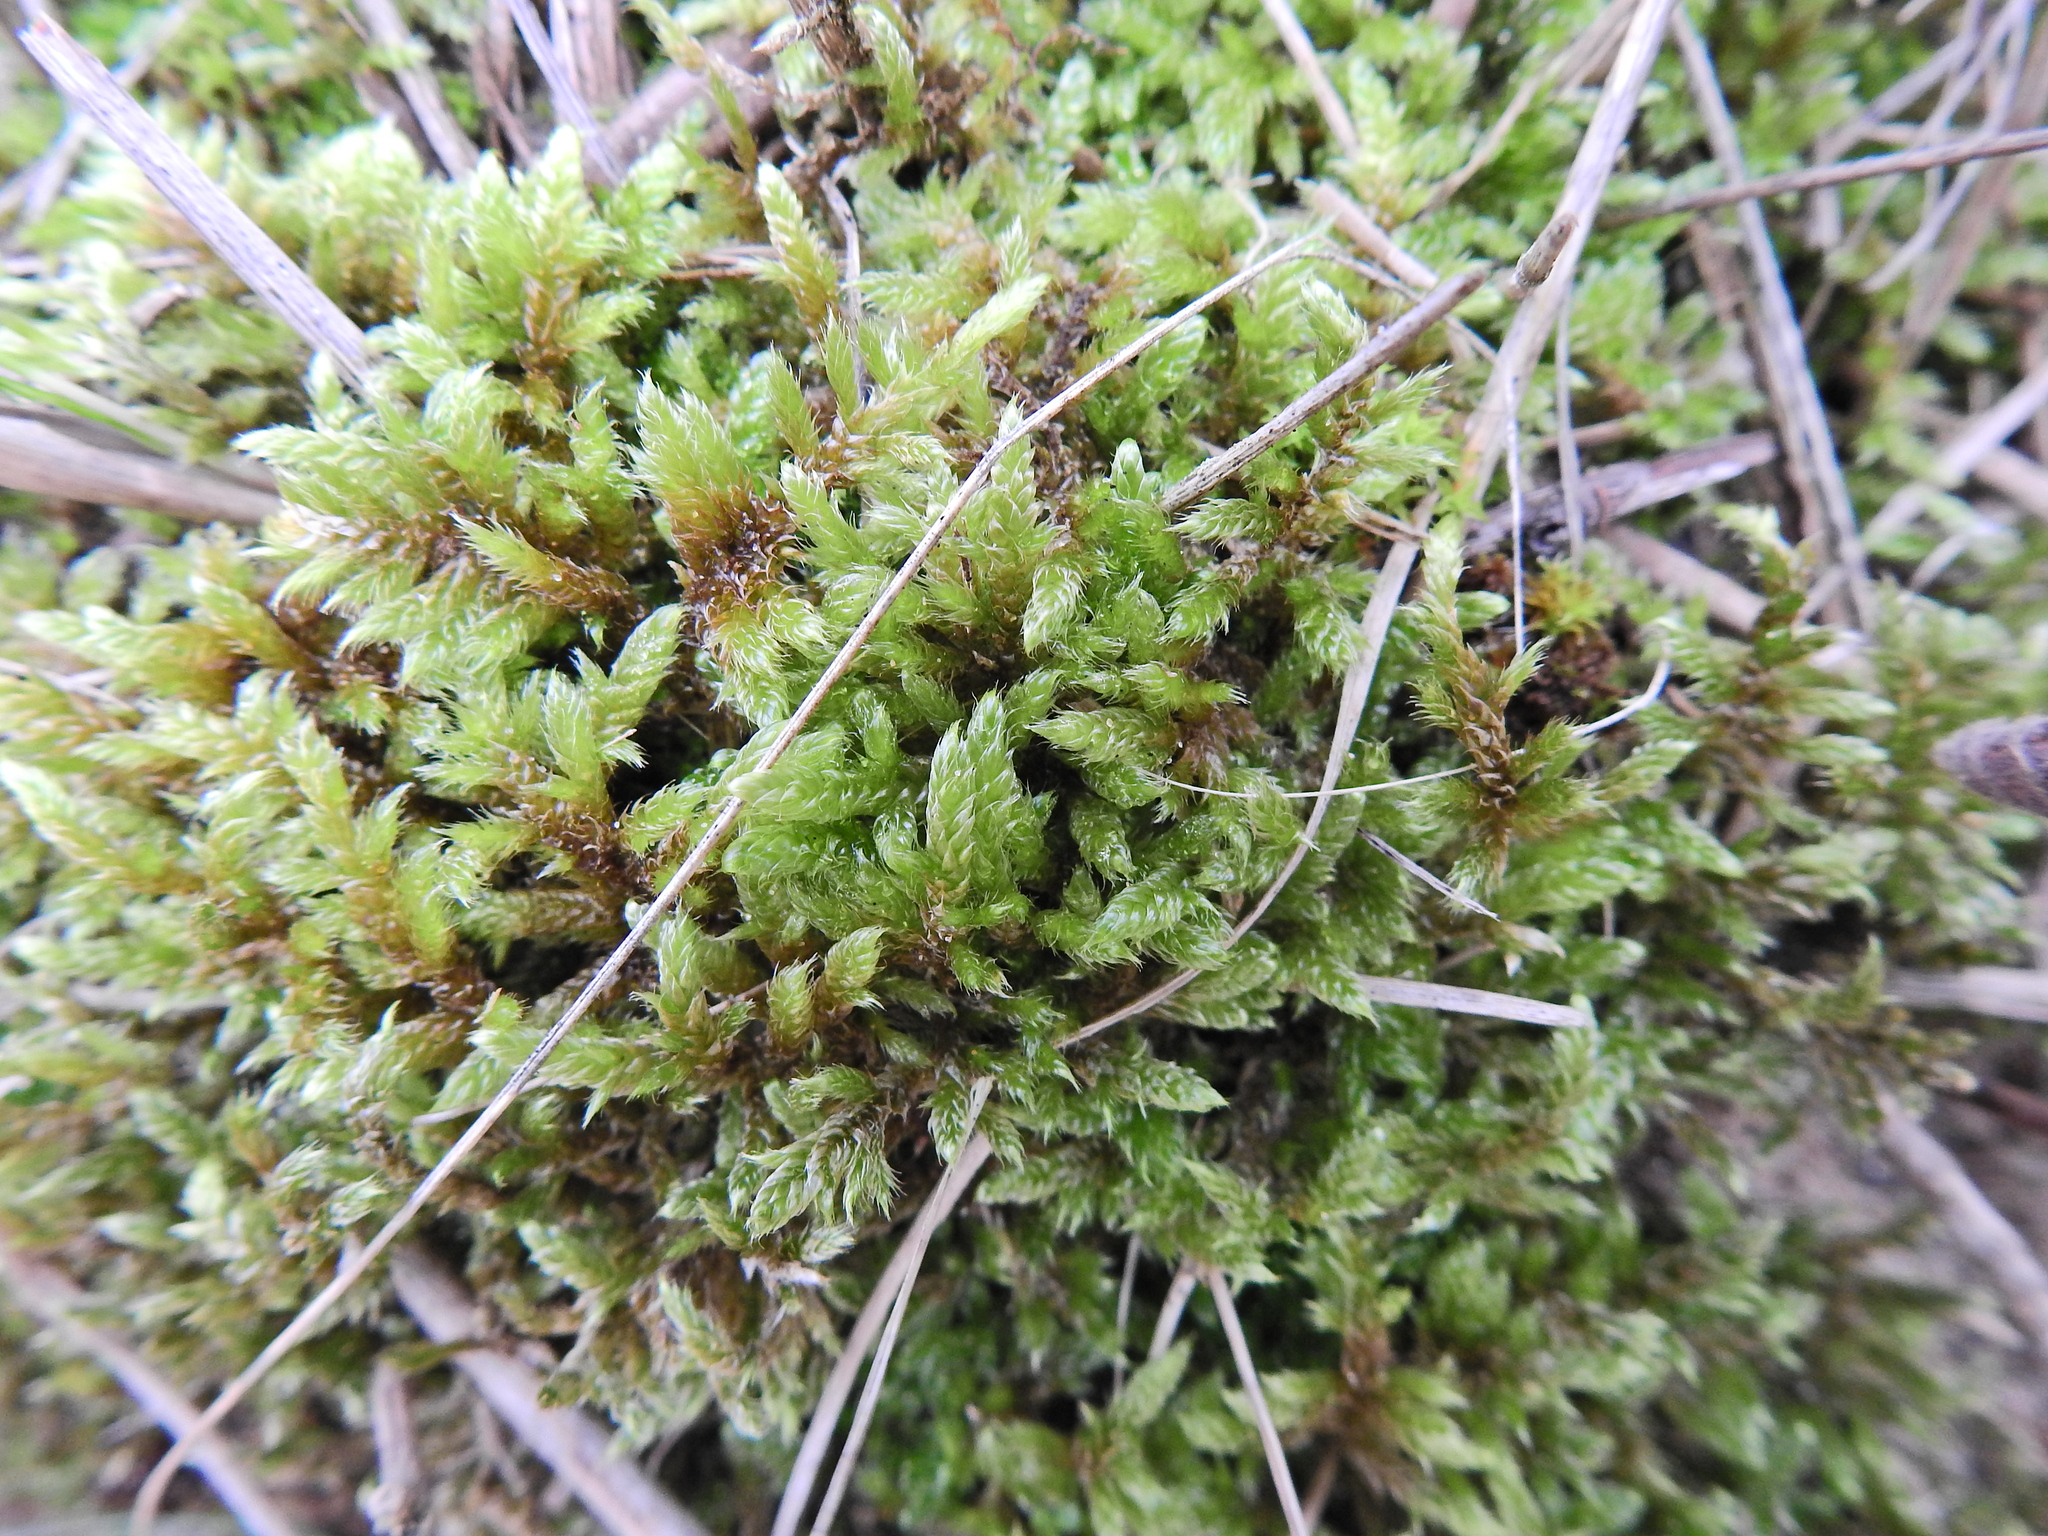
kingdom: Plantae
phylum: Bryophyta
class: Bryopsida
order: Hypnales
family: Hypnaceae
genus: Hypnum
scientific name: Hypnum cupressiforme
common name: Cypress-leaved plait-moss
